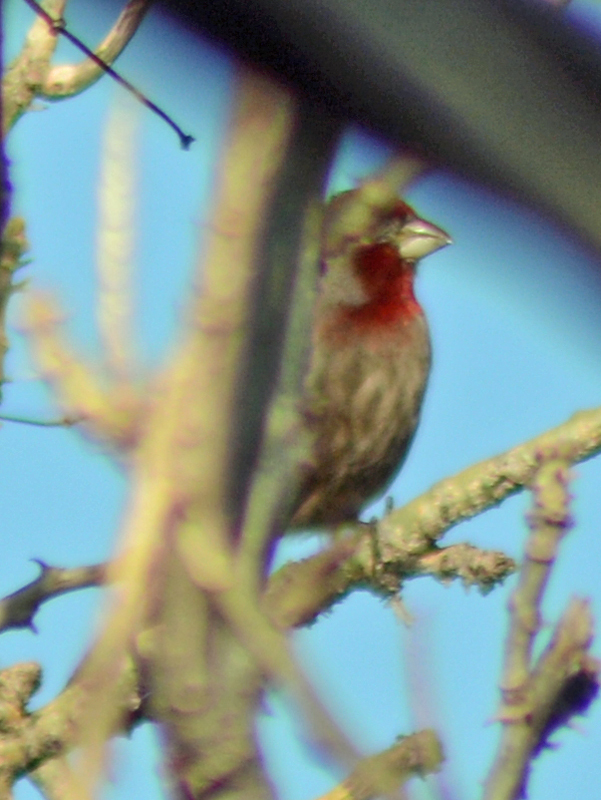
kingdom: Animalia
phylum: Chordata
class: Aves
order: Passeriformes
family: Fringillidae
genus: Haemorhous
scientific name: Haemorhous mexicanus
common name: House finch
